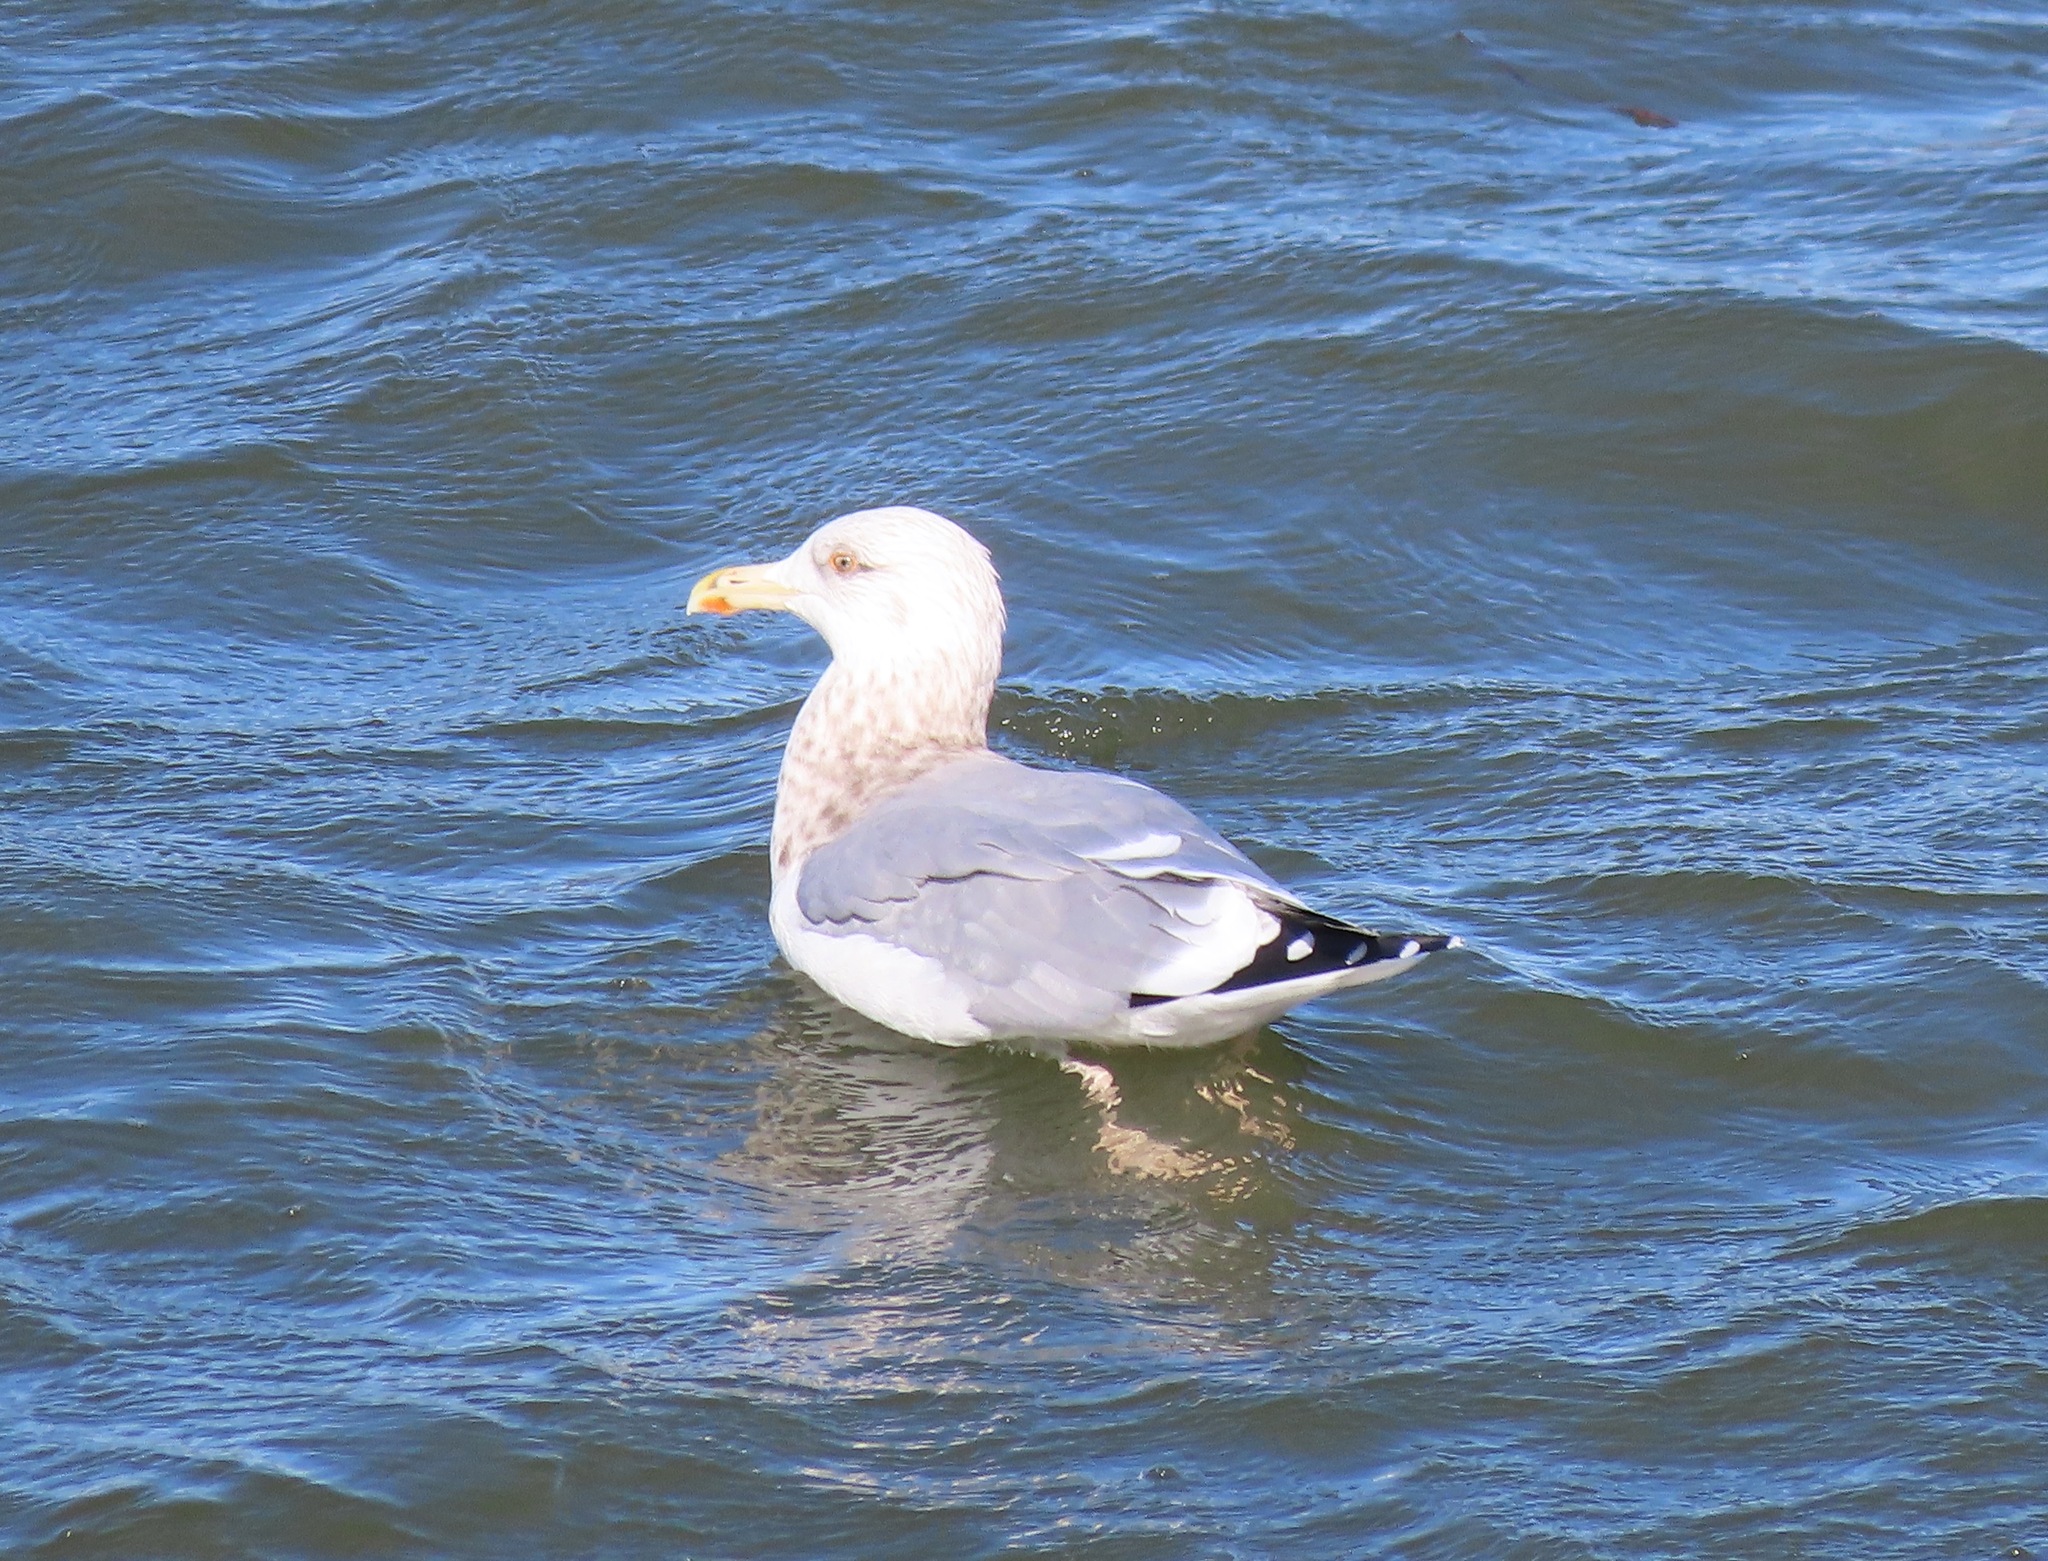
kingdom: Animalia
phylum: Chordata
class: Aves
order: Charadriiformes
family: Laridae
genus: Larus
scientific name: Larus vegae
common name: Vega gull
